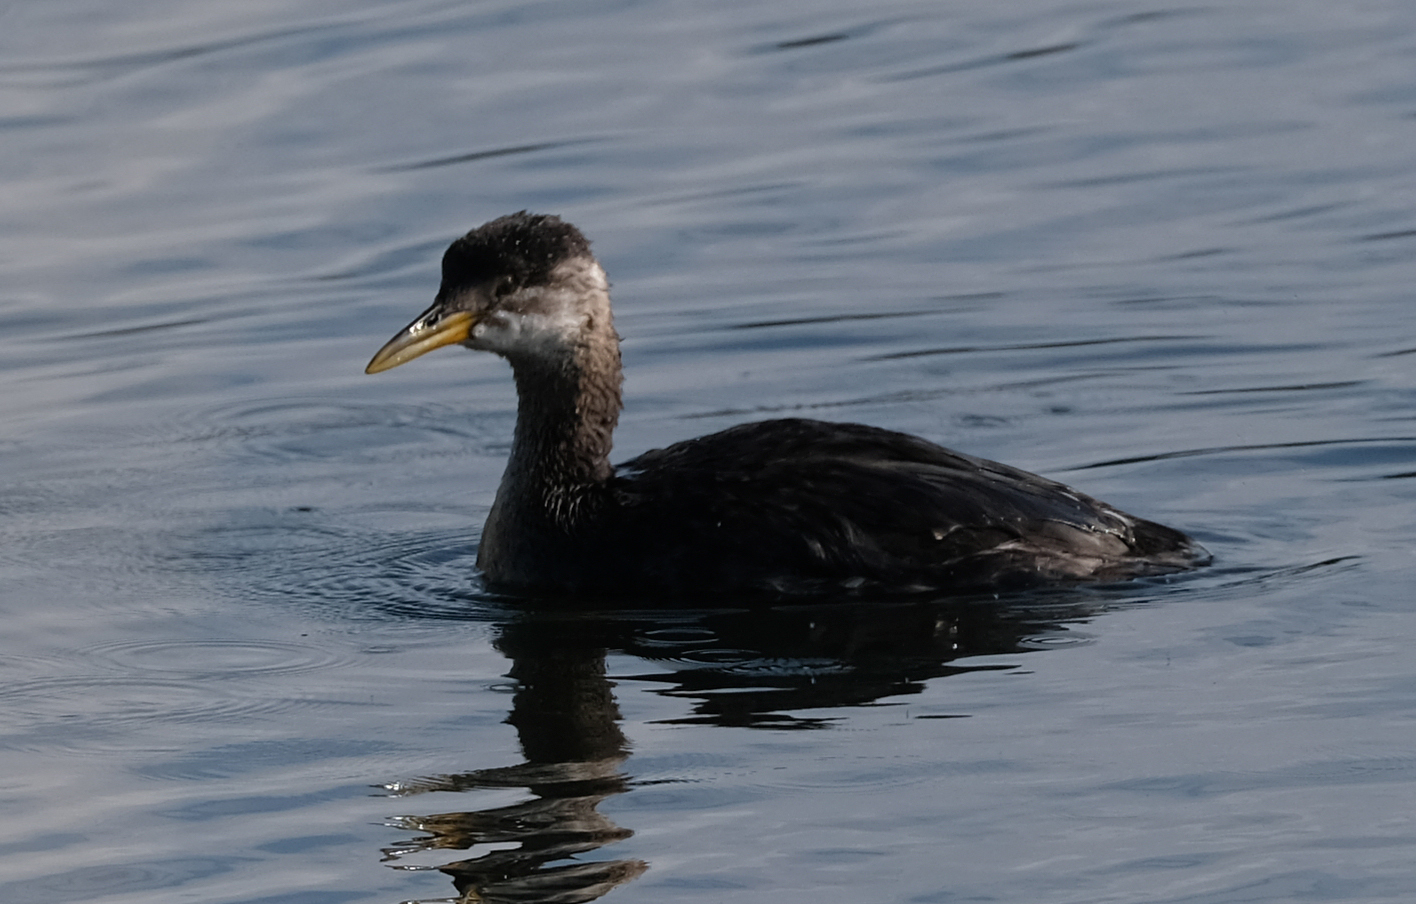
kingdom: Animalia
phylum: Chordata
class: Aves
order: Podicipediformes
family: Podicipedidae
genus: Podiceps
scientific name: Podiceps grisegena
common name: Red-necked grebe
